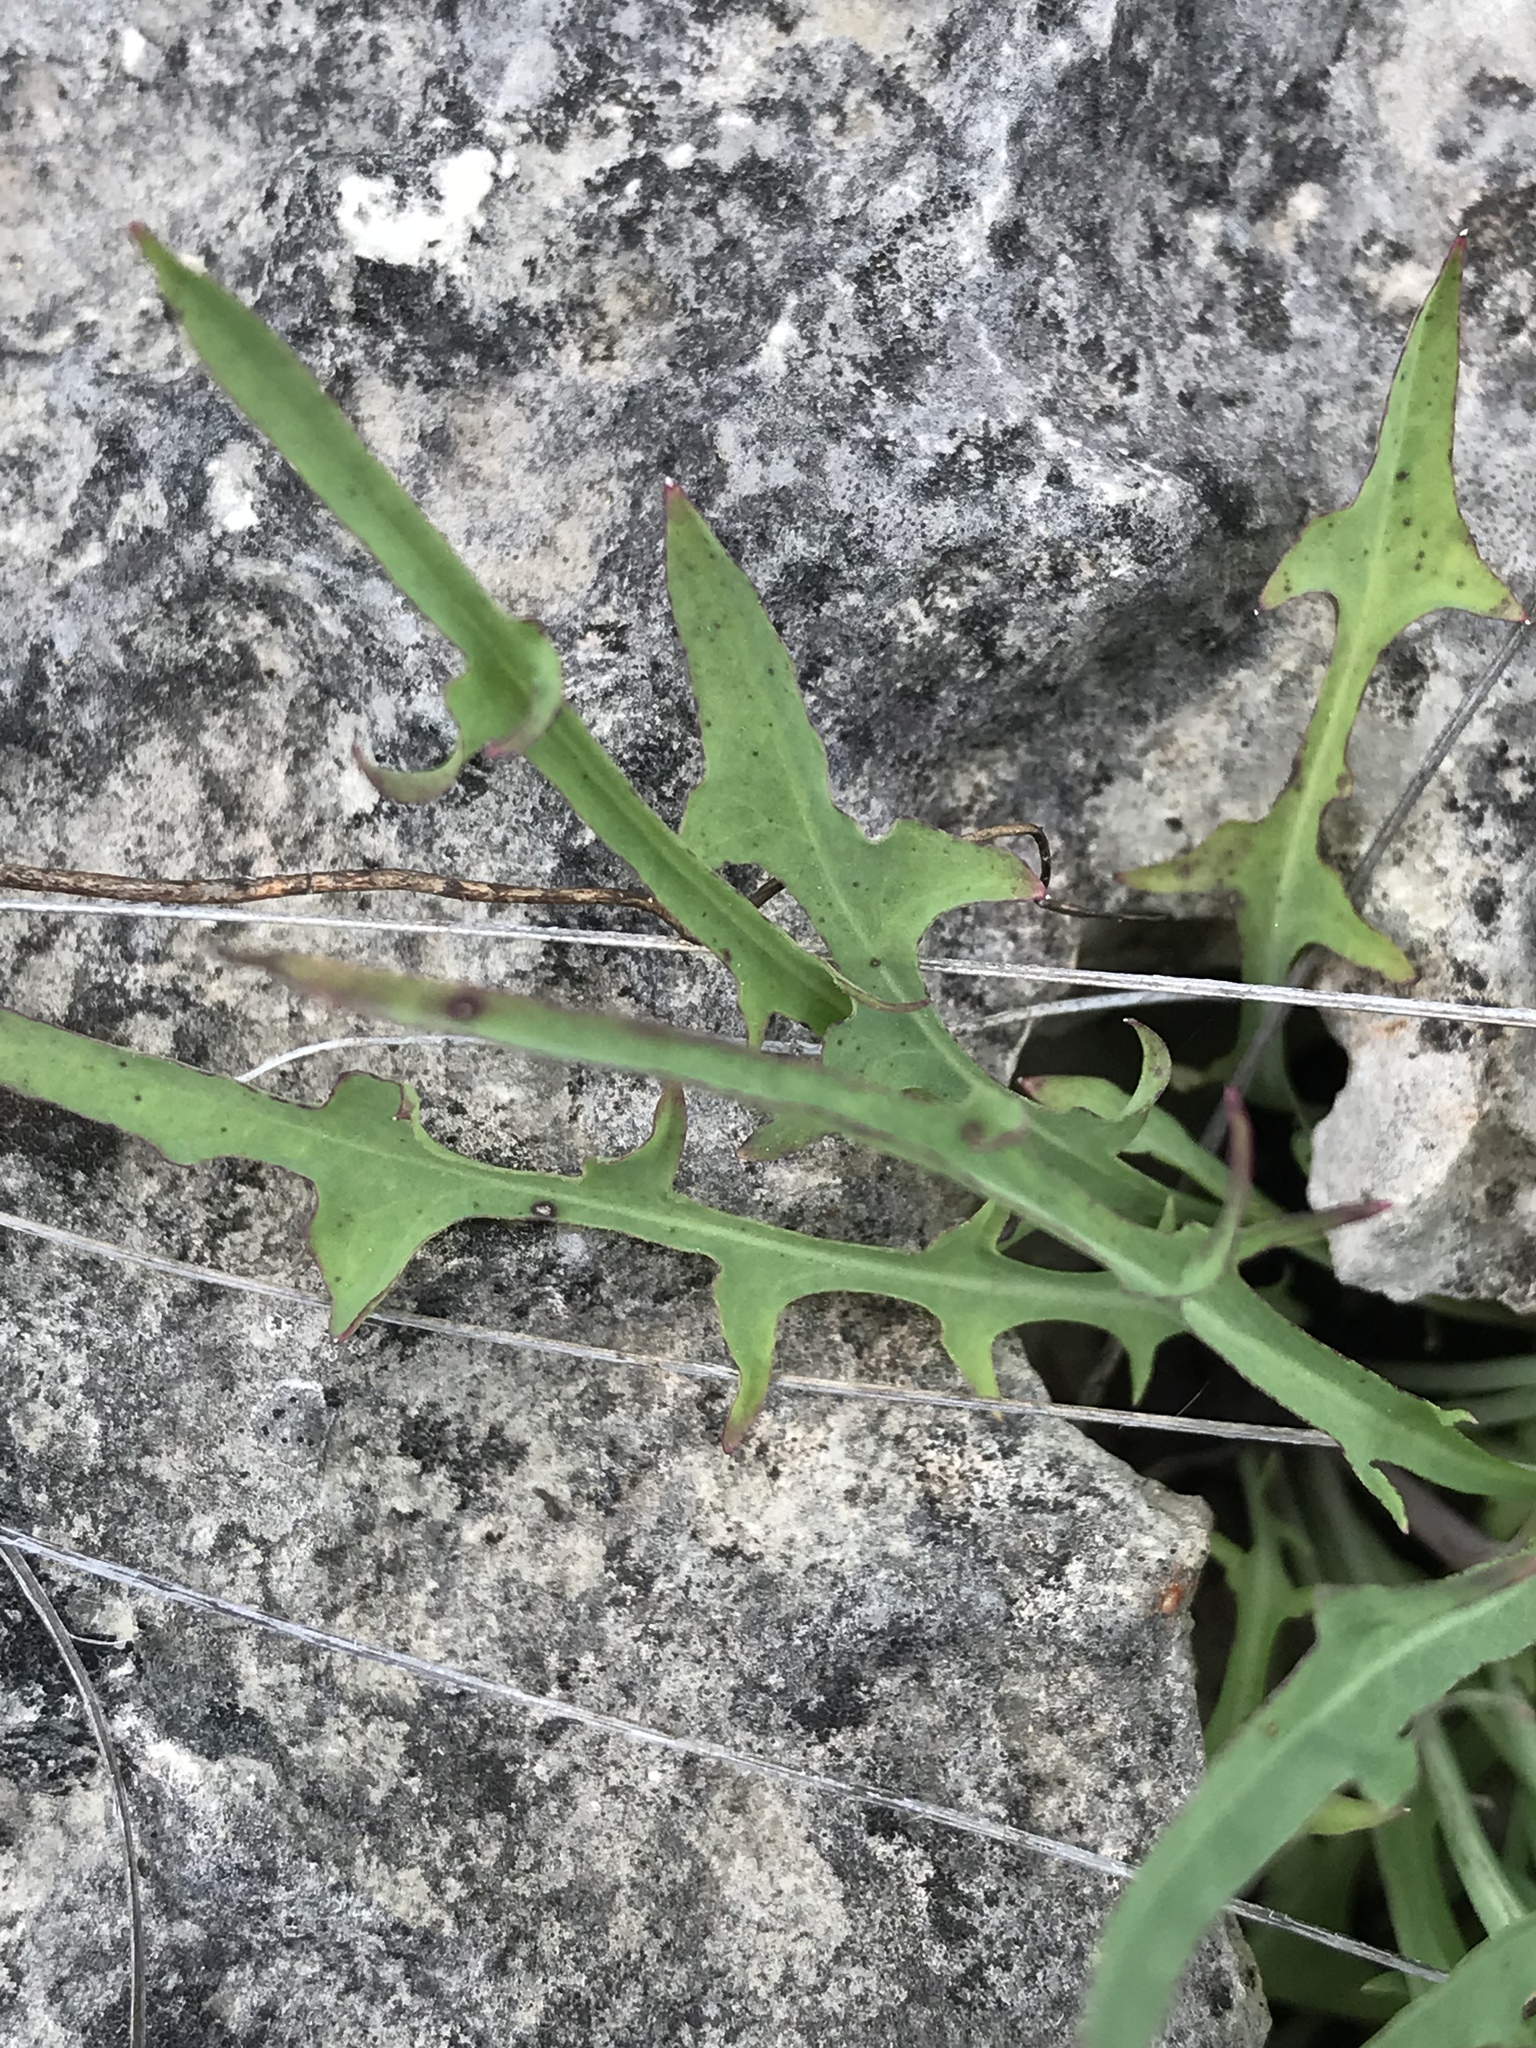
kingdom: Plantae
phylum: Tracheophyta
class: Magnoliopsida
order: Asterales
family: Asteraceae
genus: Pinaropappus
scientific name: Pinaropappus roseus
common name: Rock-lettuce
